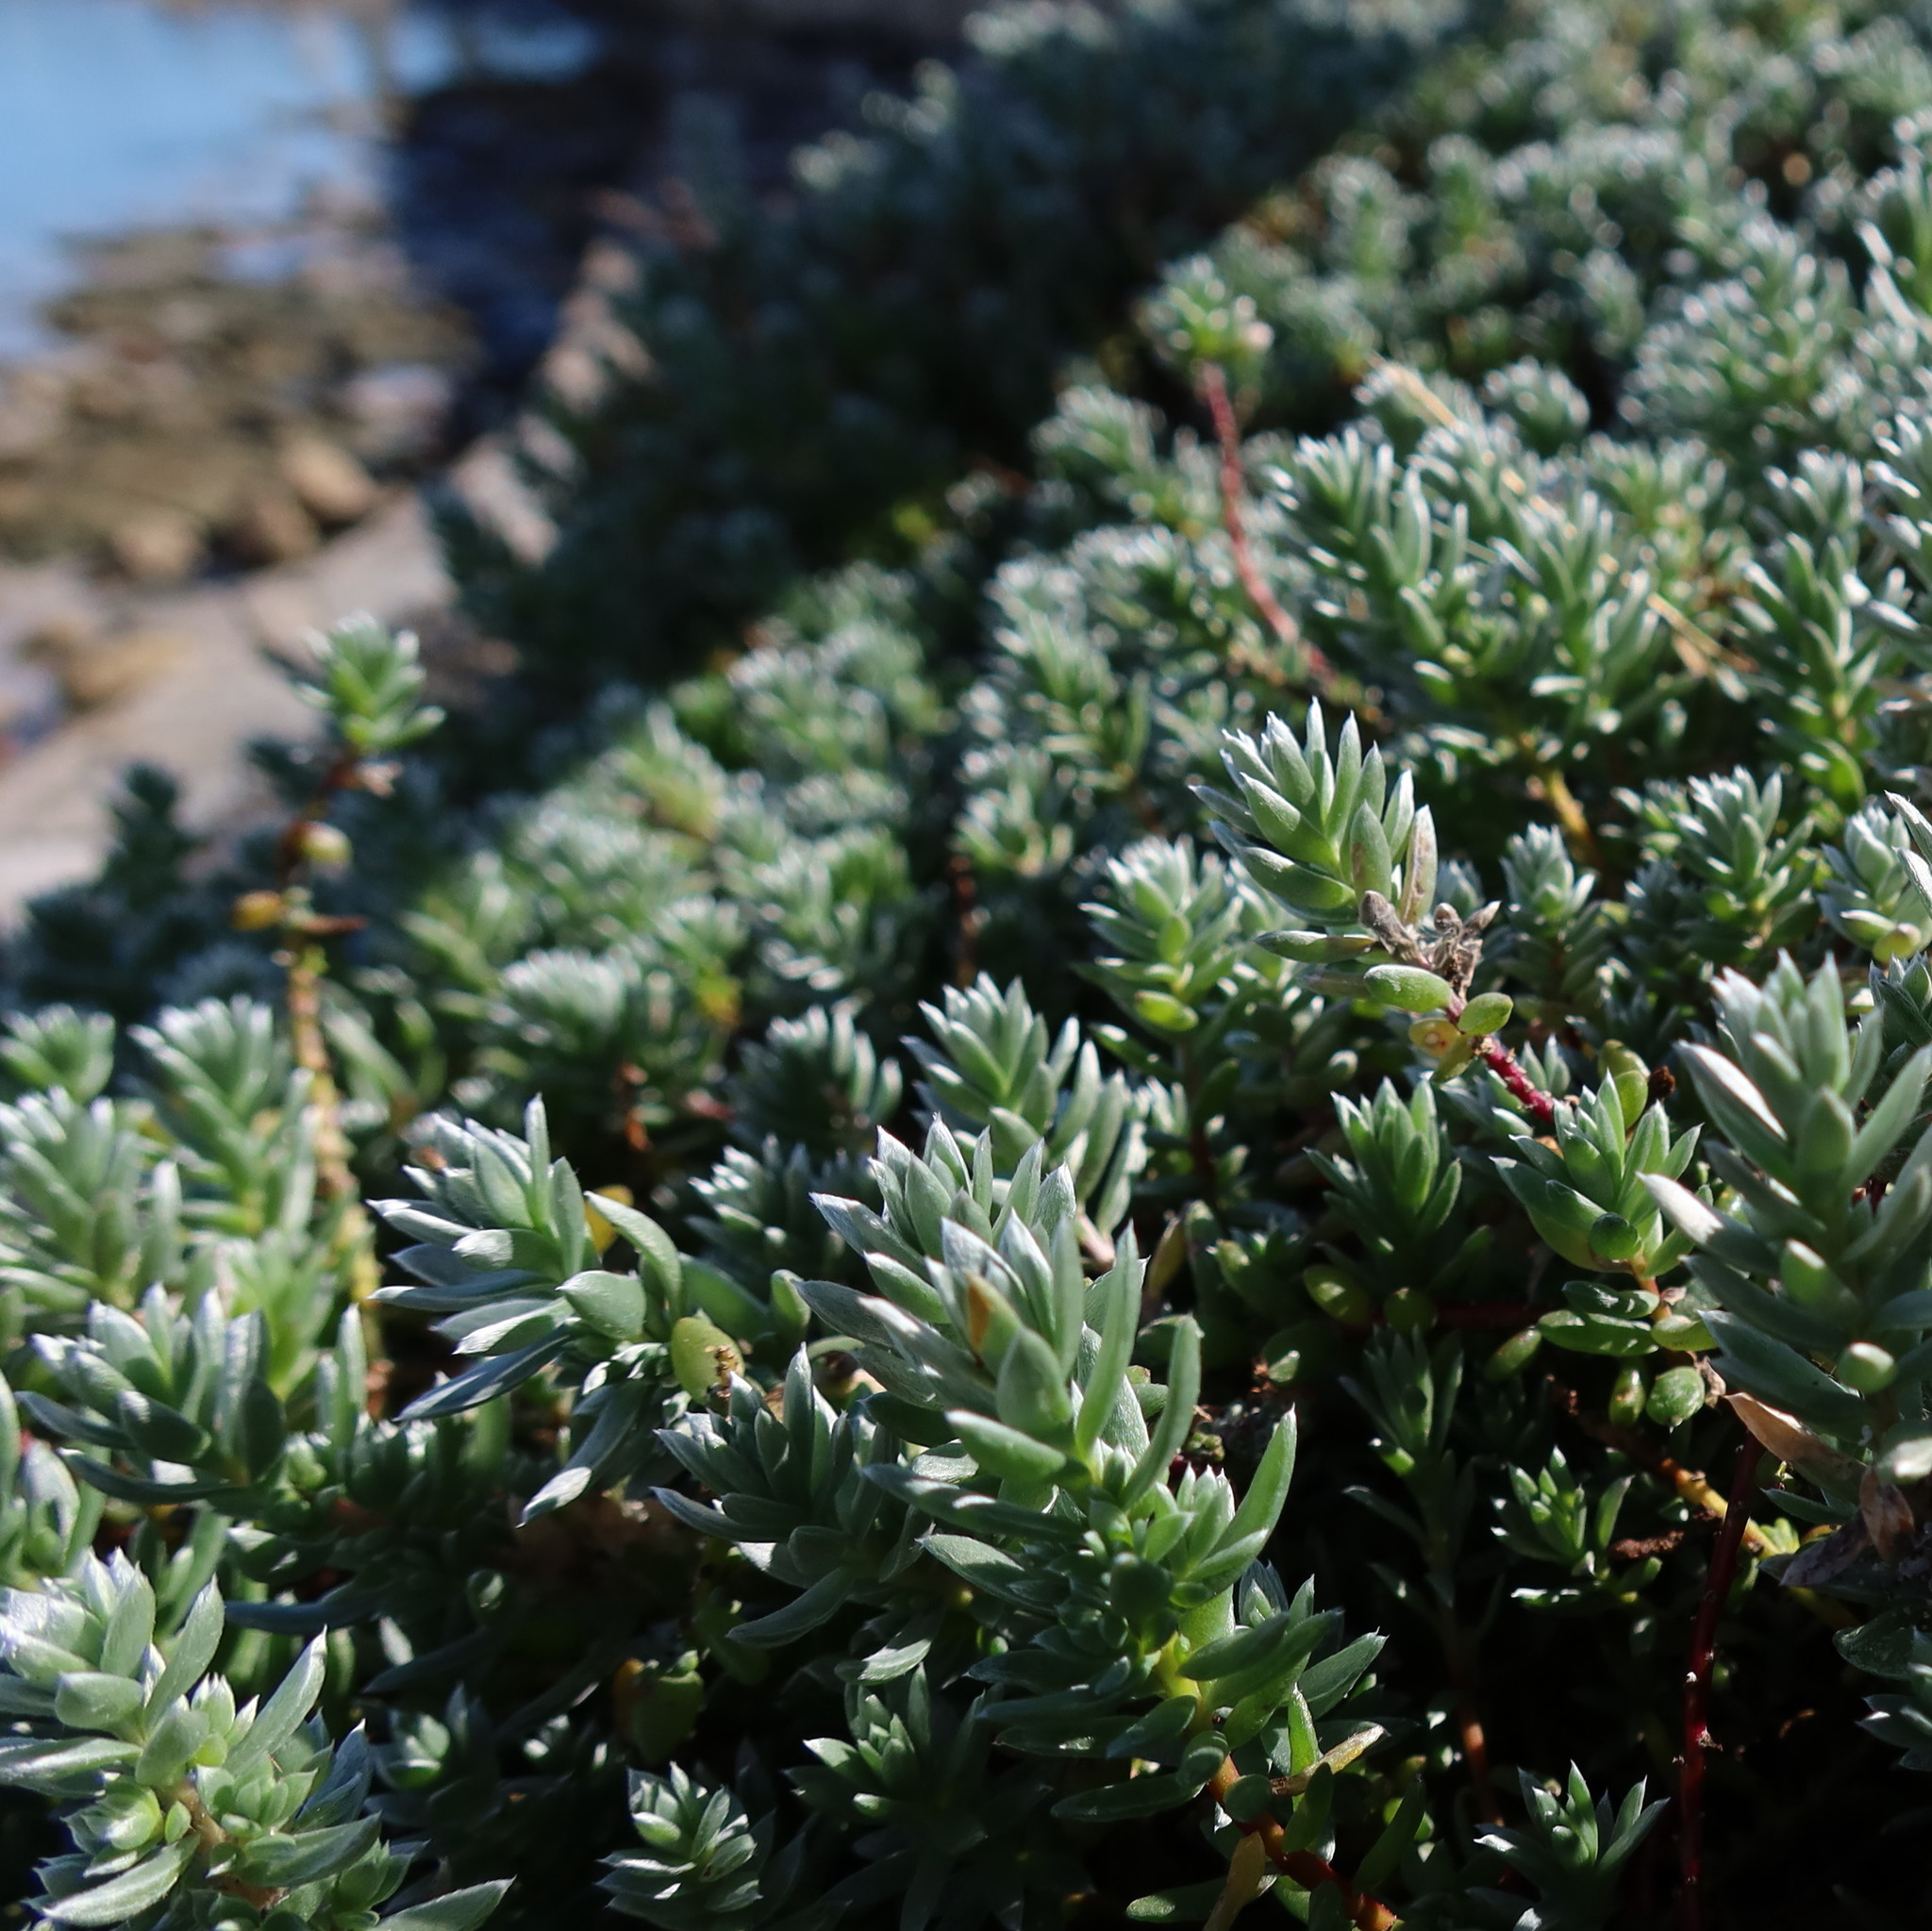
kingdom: Plantae
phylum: Tracheophyta
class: Magnoliopsida
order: Caryophyllales
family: Amaranthaceae
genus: Chenolea
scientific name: Chenolea diffusa
